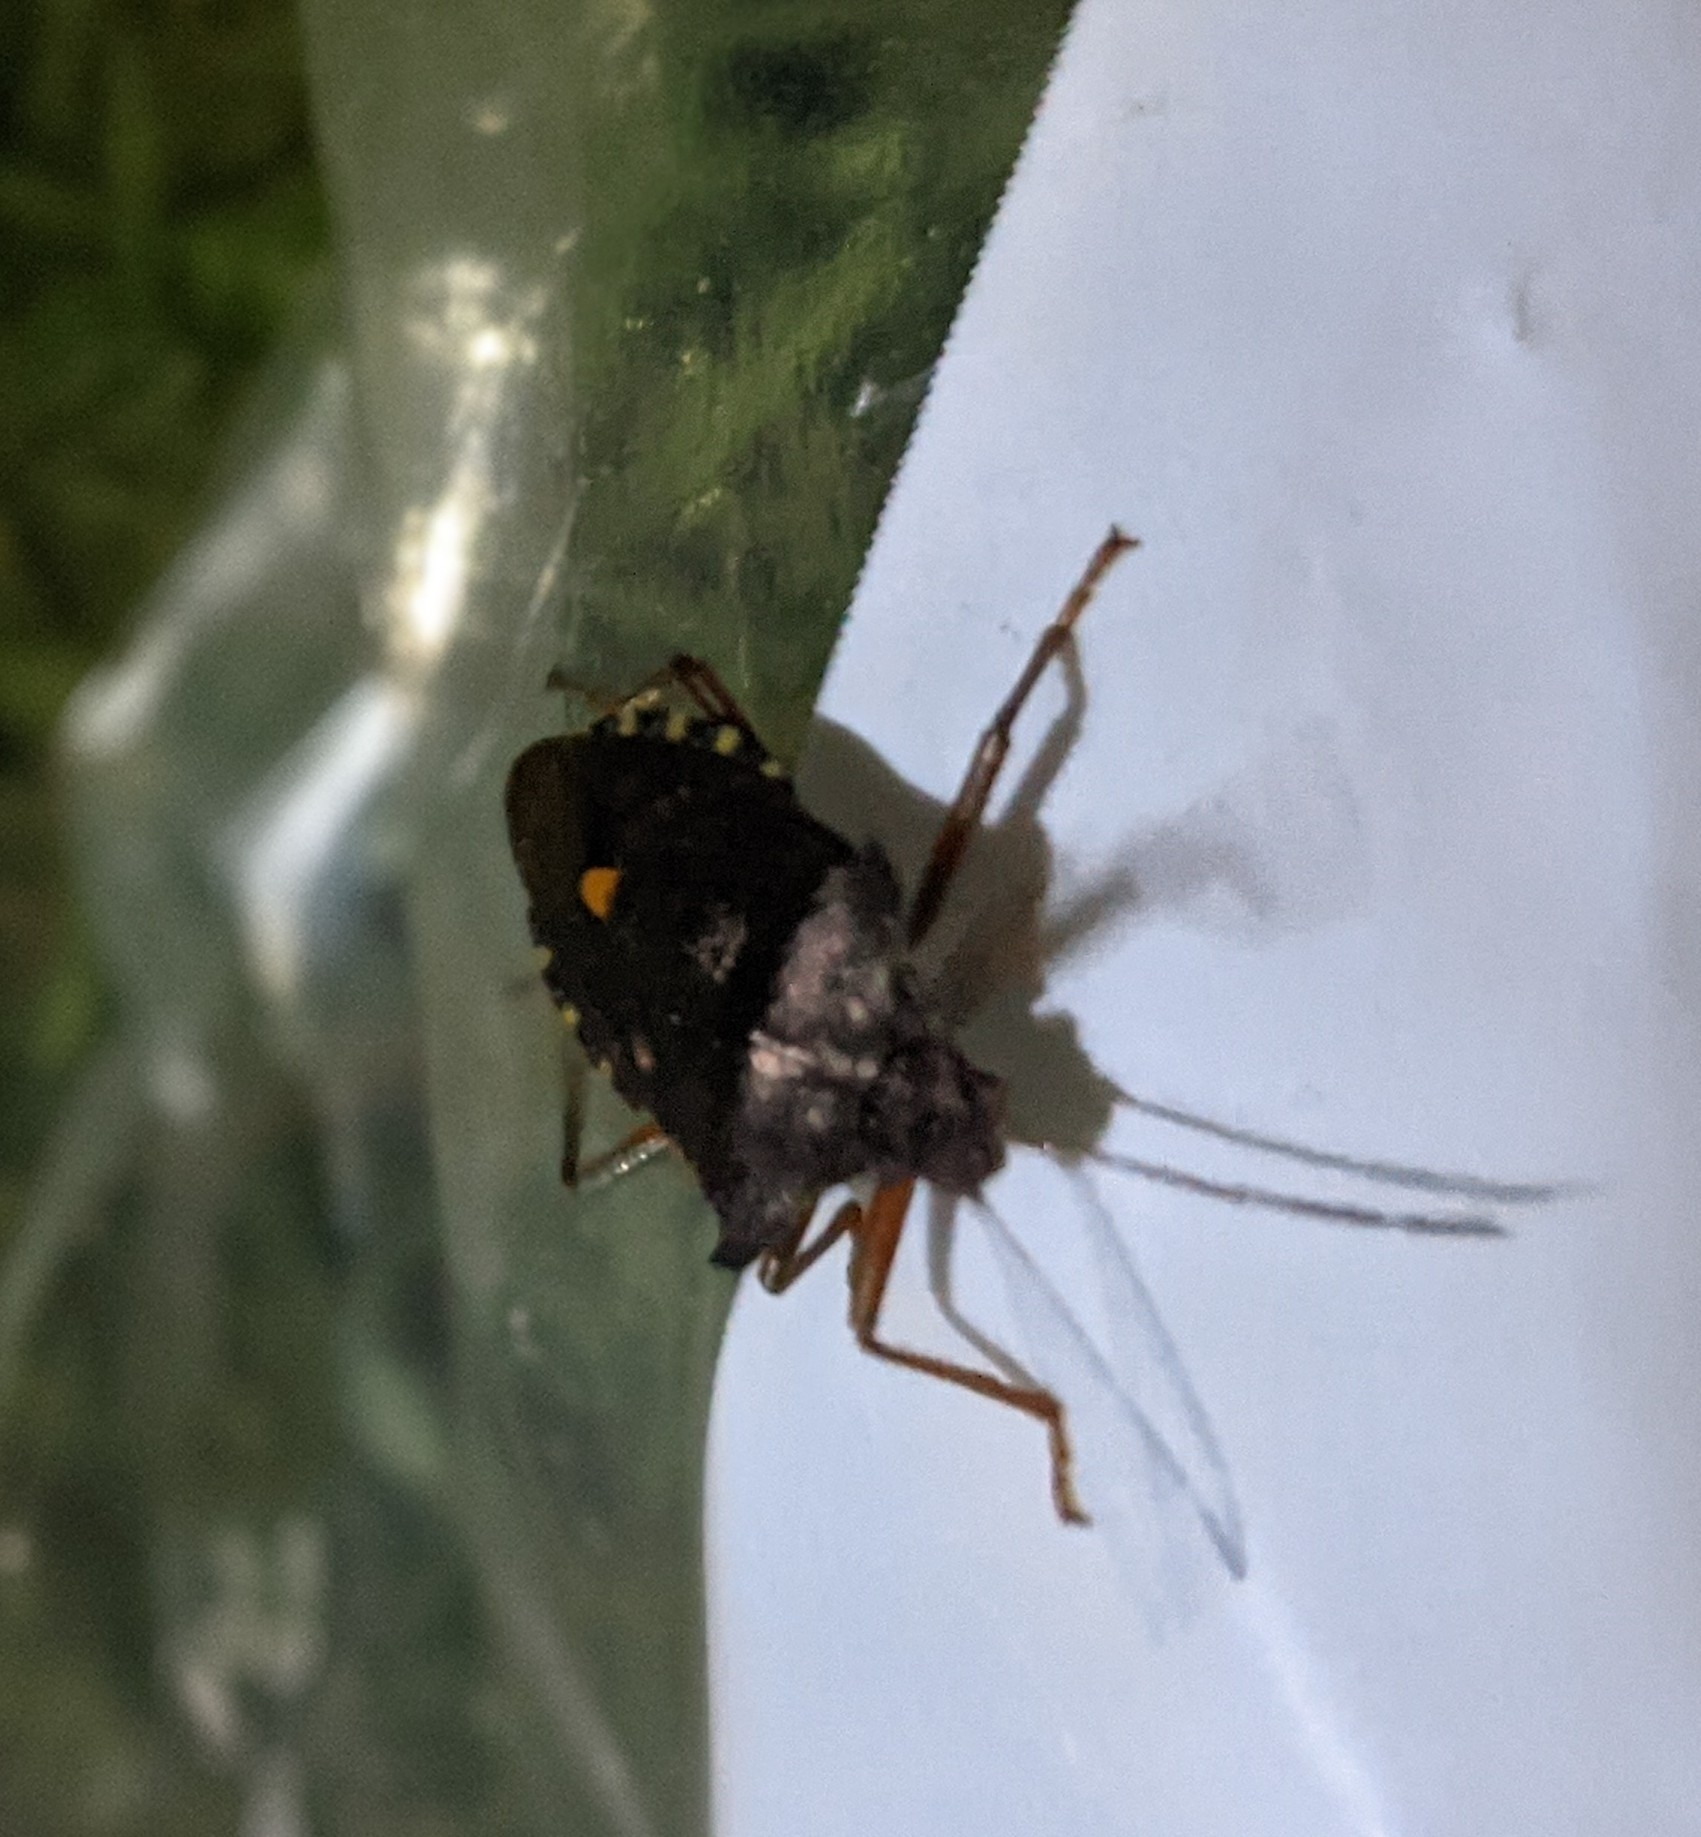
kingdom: Animalia
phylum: Arthropoda
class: Insecta
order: Hemiptera
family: Pentatomidae
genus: Pentatoma
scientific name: Pentatoma rufipes
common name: Forest bug
